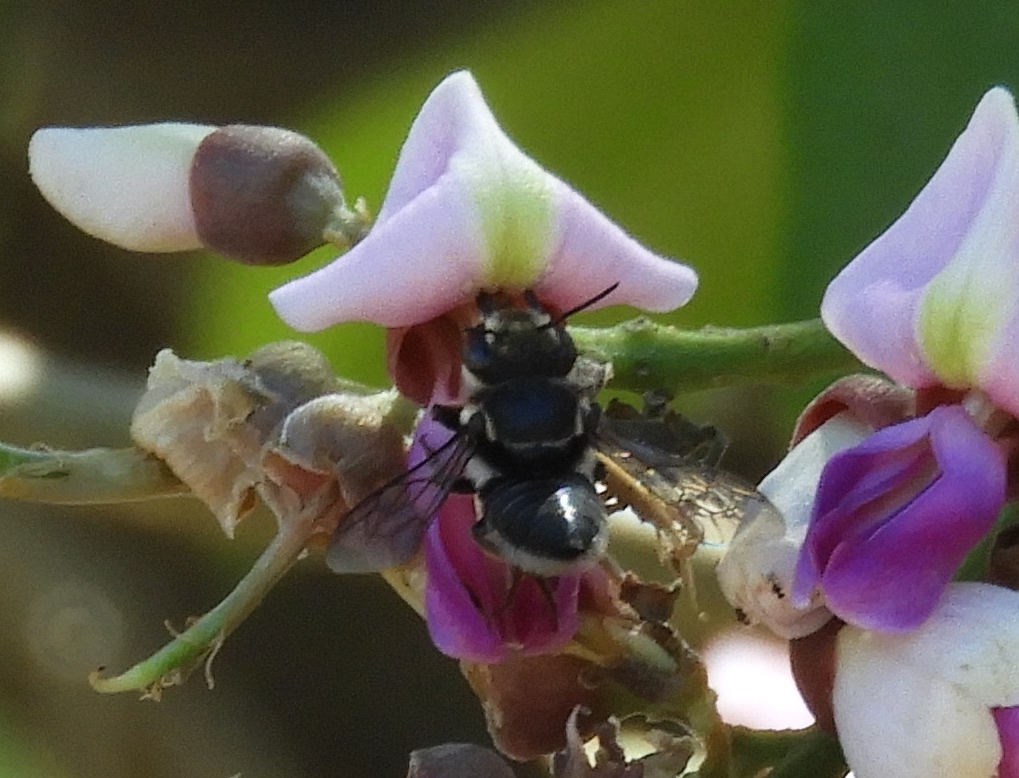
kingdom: Animalia
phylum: Arthropoda
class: Insecta
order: Hymenoptera
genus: Tylomegachile
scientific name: Tylomegachile
